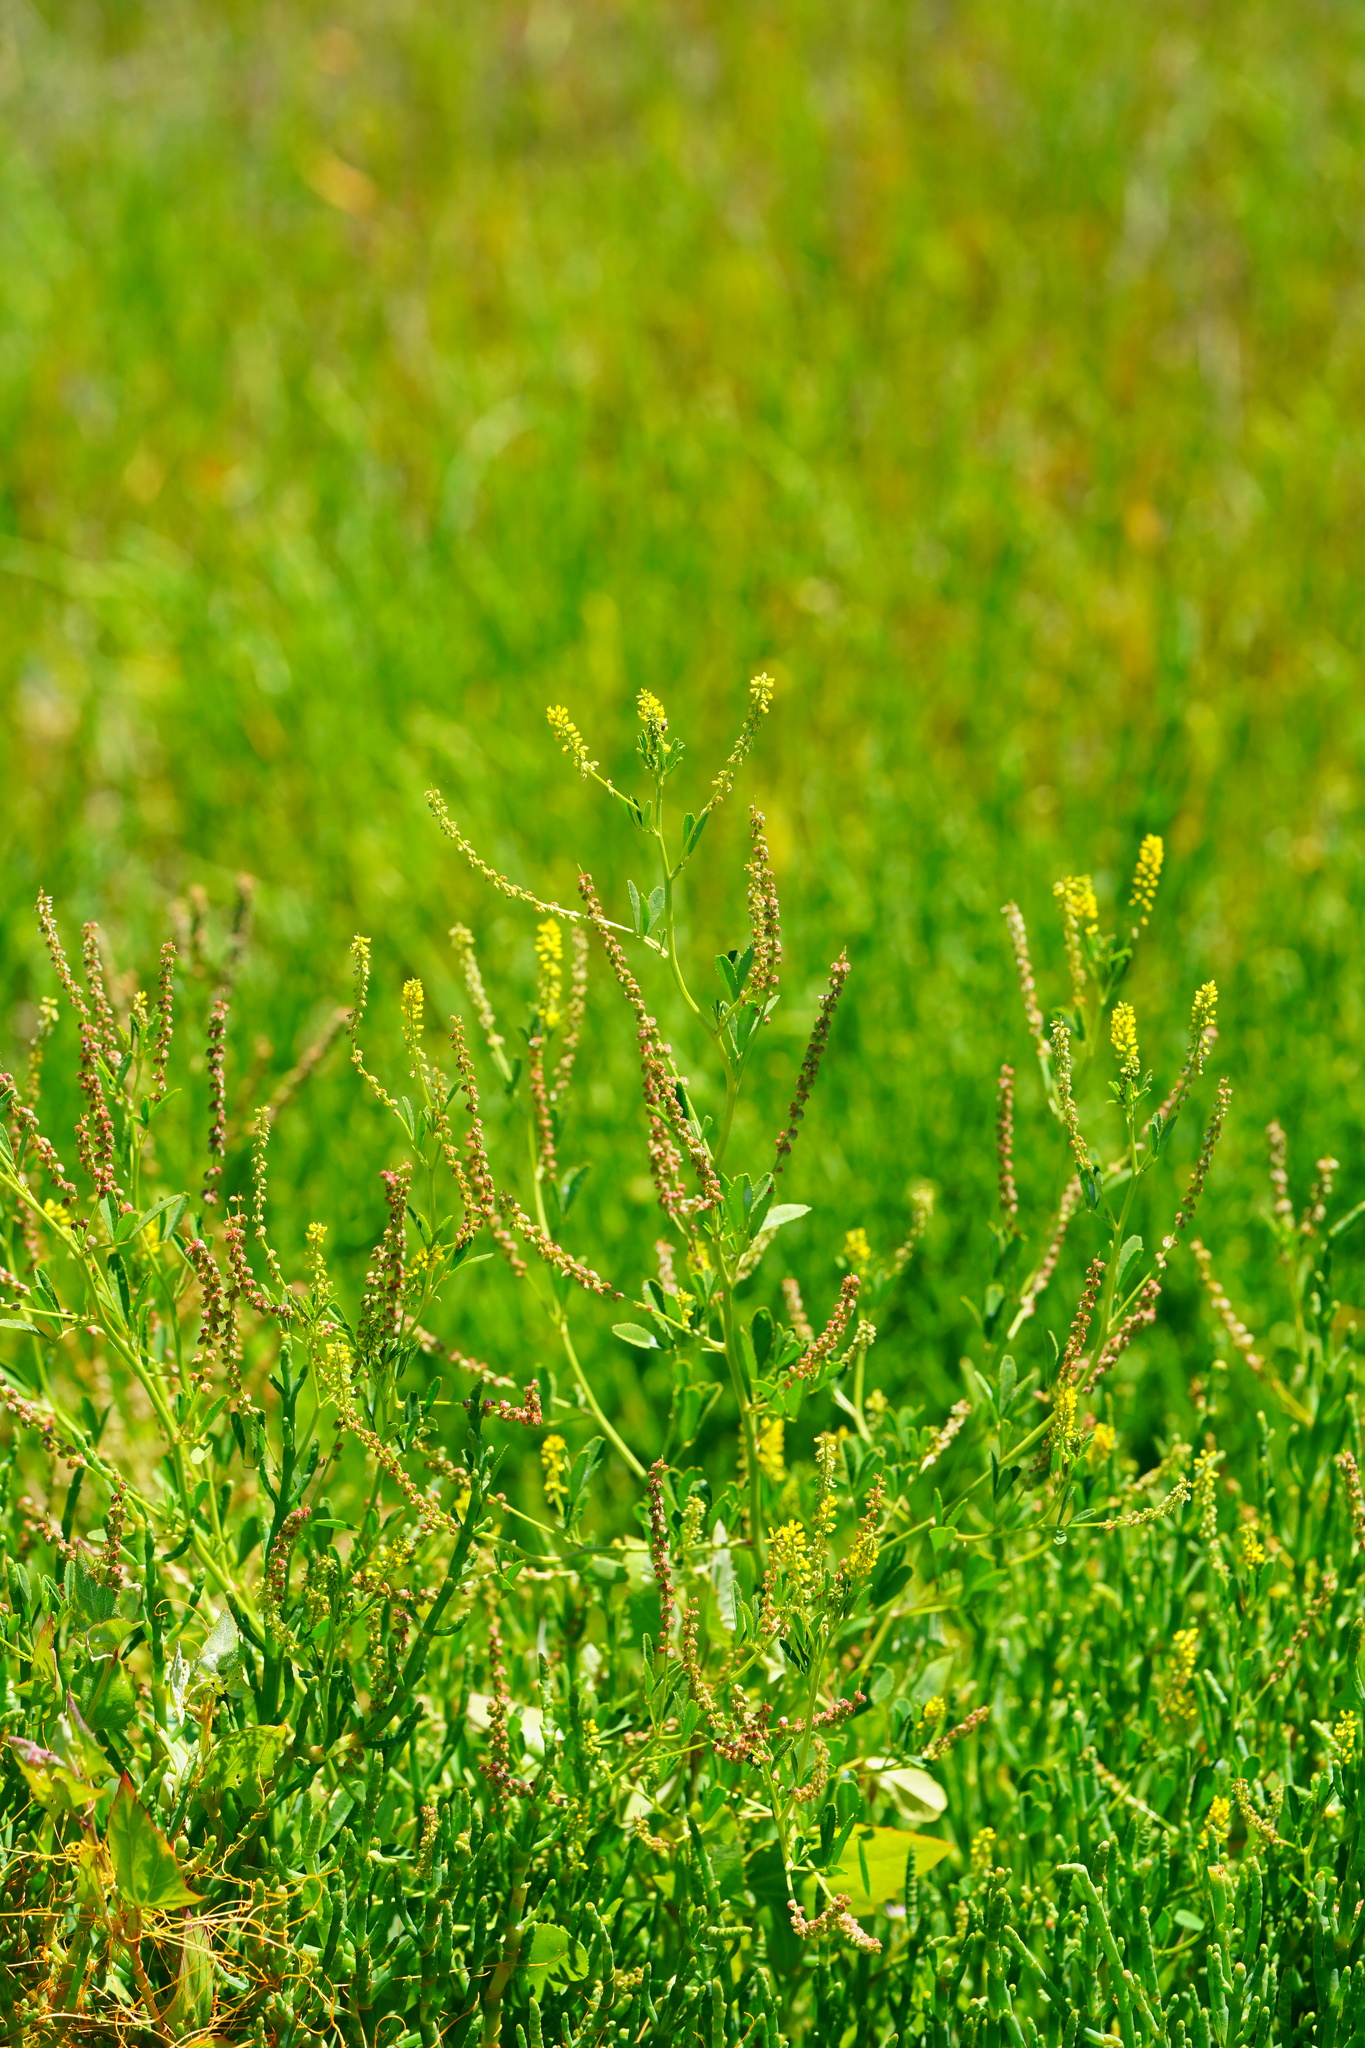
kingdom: Plantae
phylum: Tracheophyta
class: Magnoliopsida
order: Fabales
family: Fabaceae
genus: Melilotus
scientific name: Melilotus indicus
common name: Small melilot
